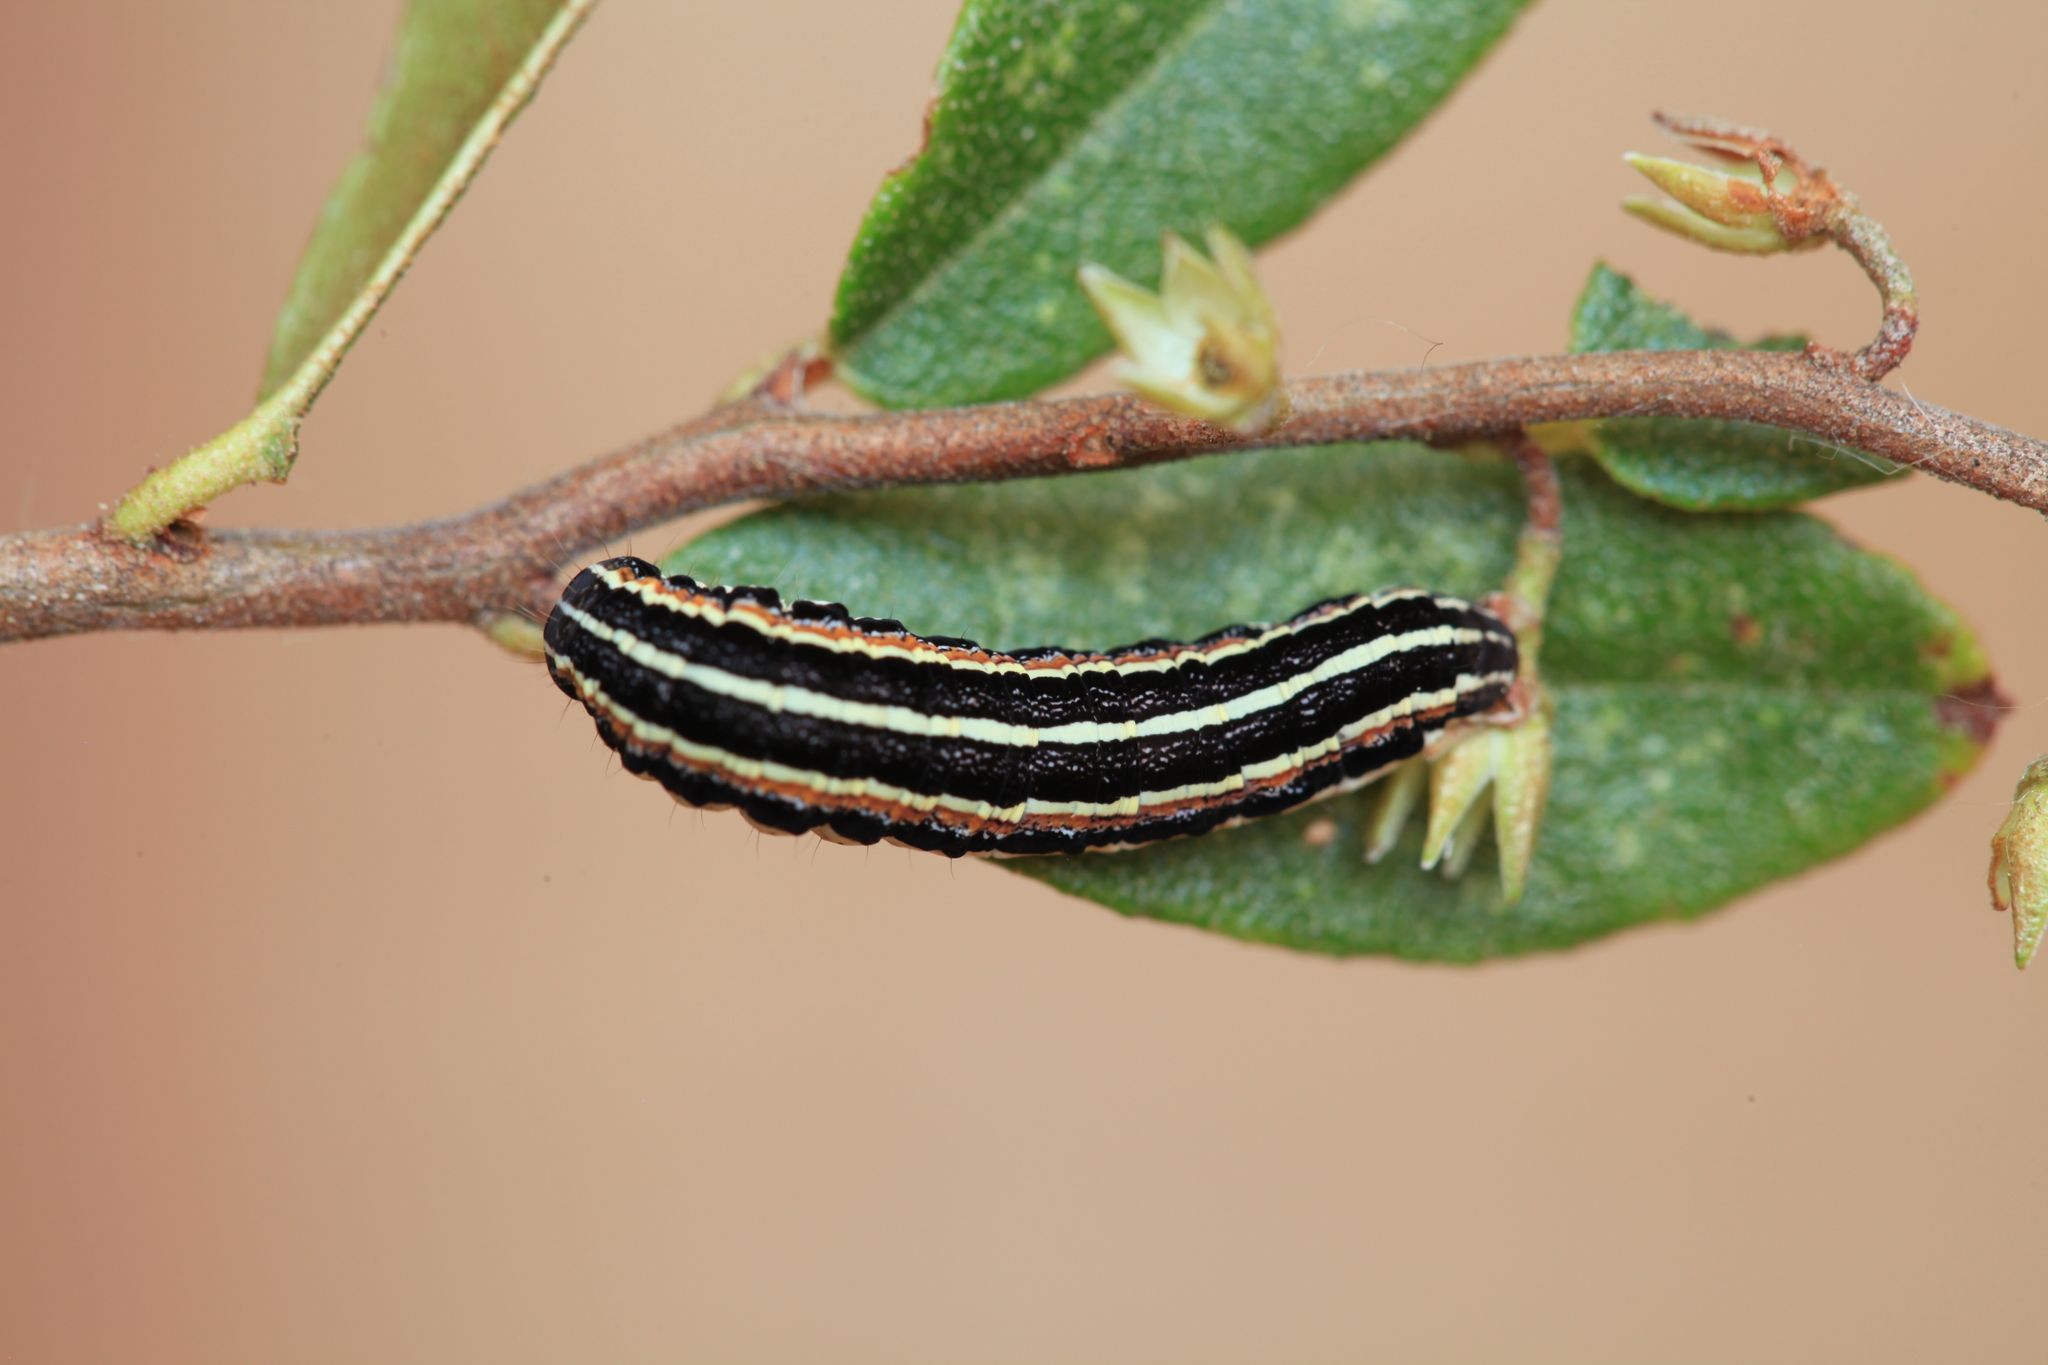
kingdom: Animalia
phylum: Arthropoda
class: Insecta
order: Lepidoptera
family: Noctuidae
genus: Coenophila
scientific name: Coenophila subrosea
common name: Rosy marsh moth
